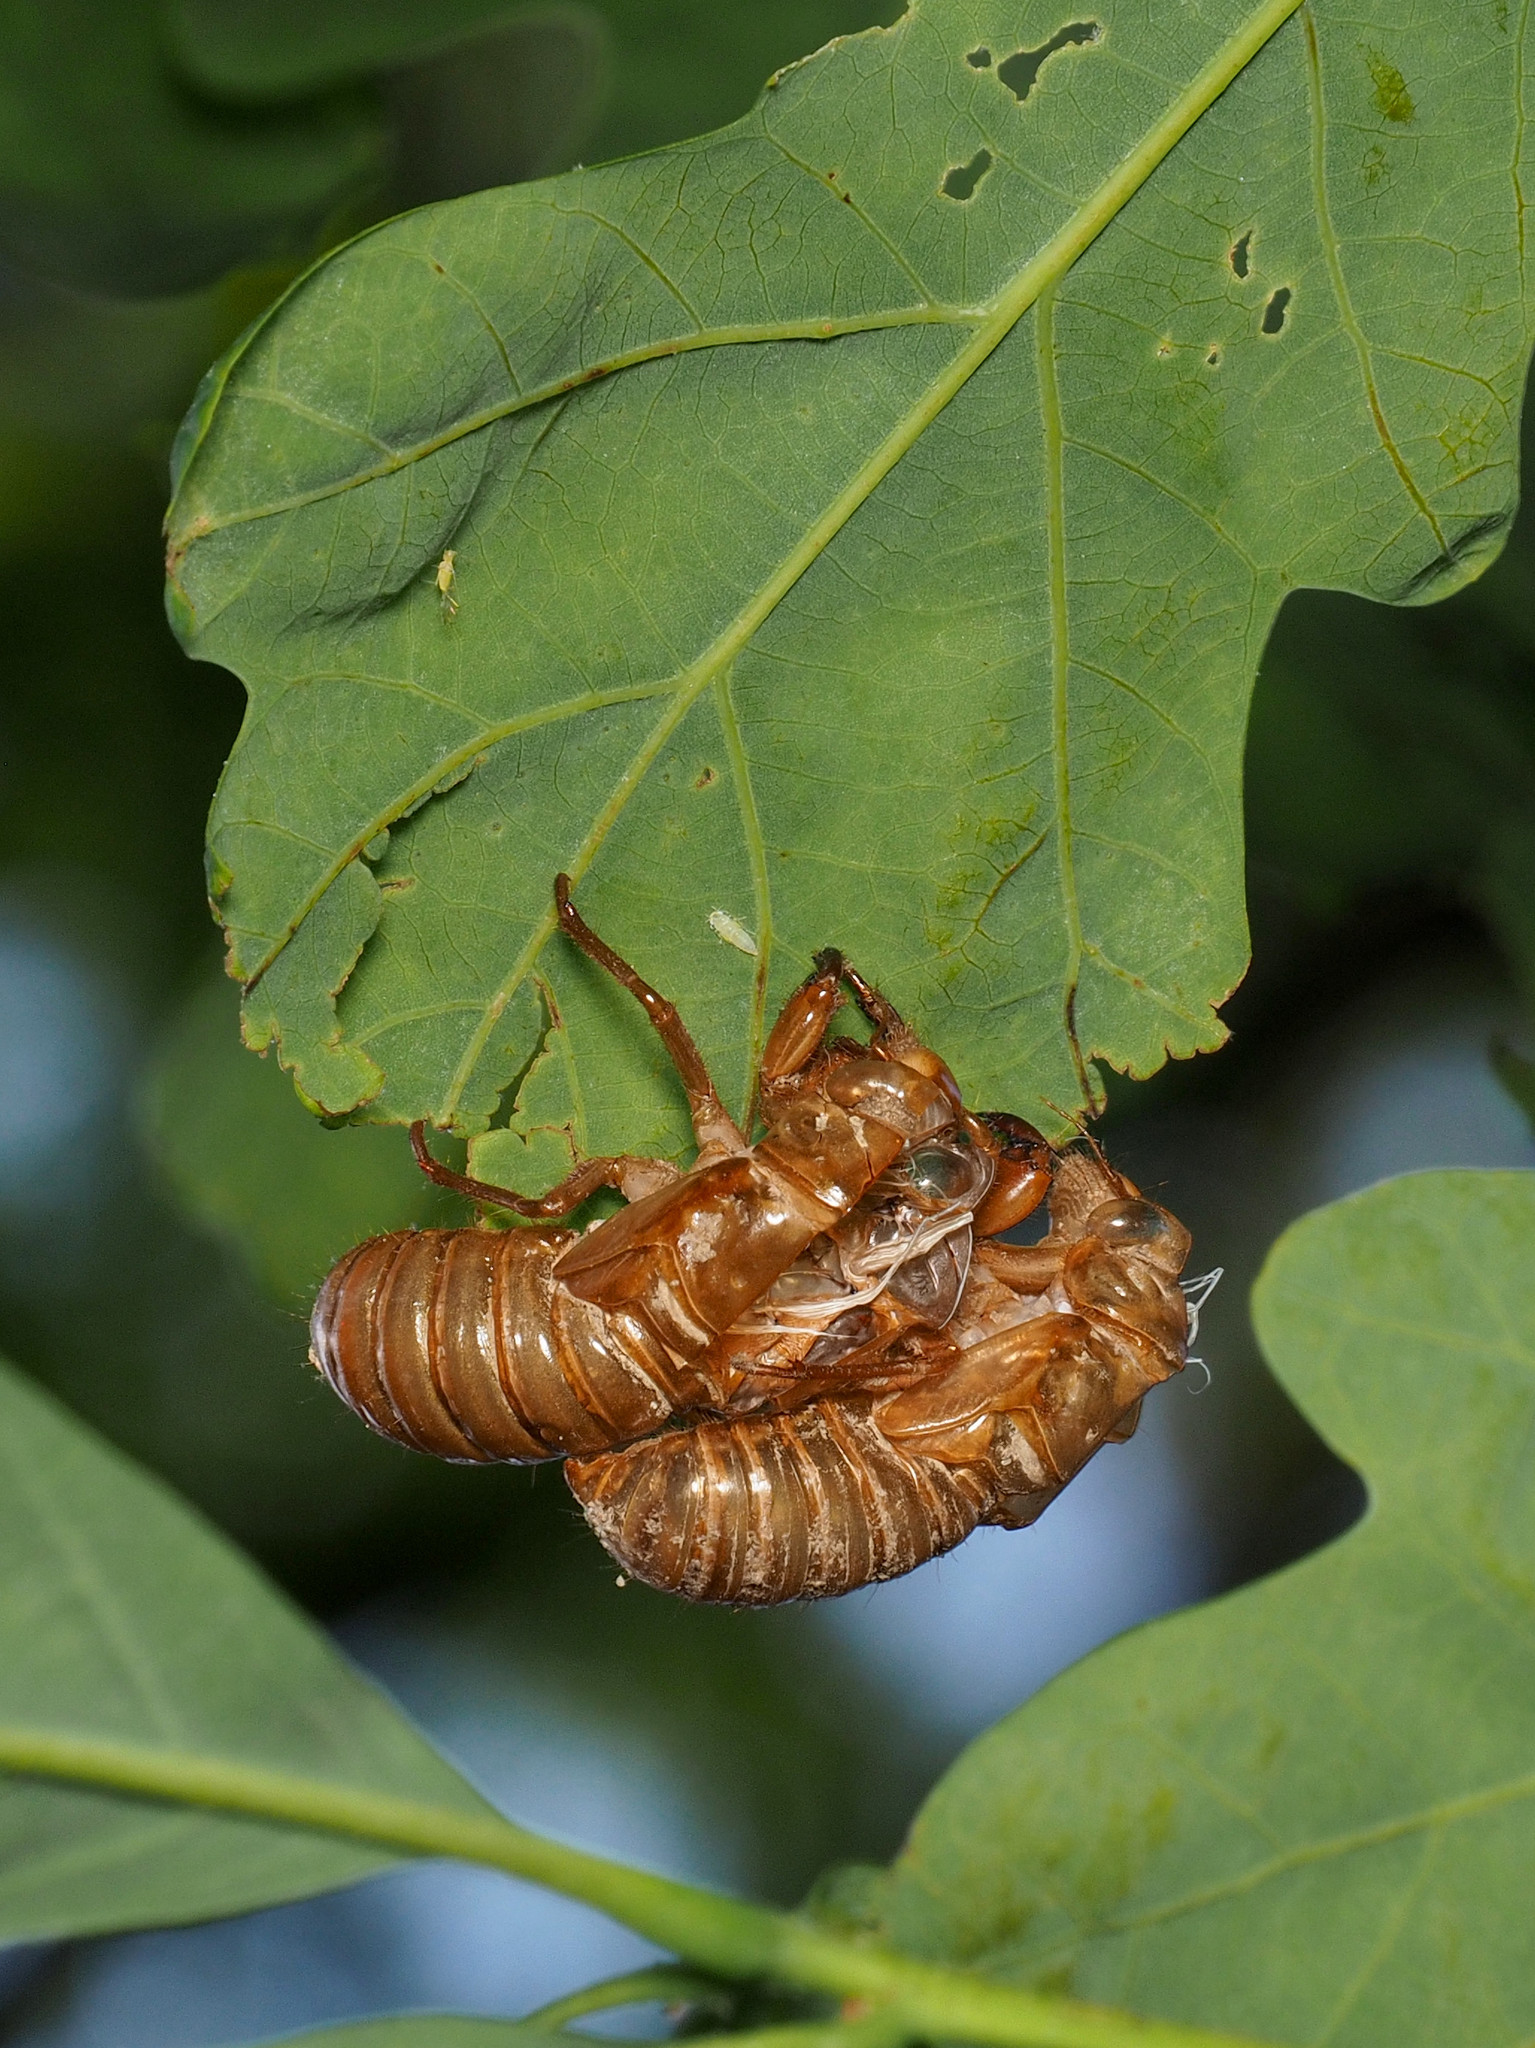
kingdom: Animalia
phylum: Arthropoda
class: Insecta
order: Hemiptera
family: Cicadidae
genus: Magicicada
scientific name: Magicicada
